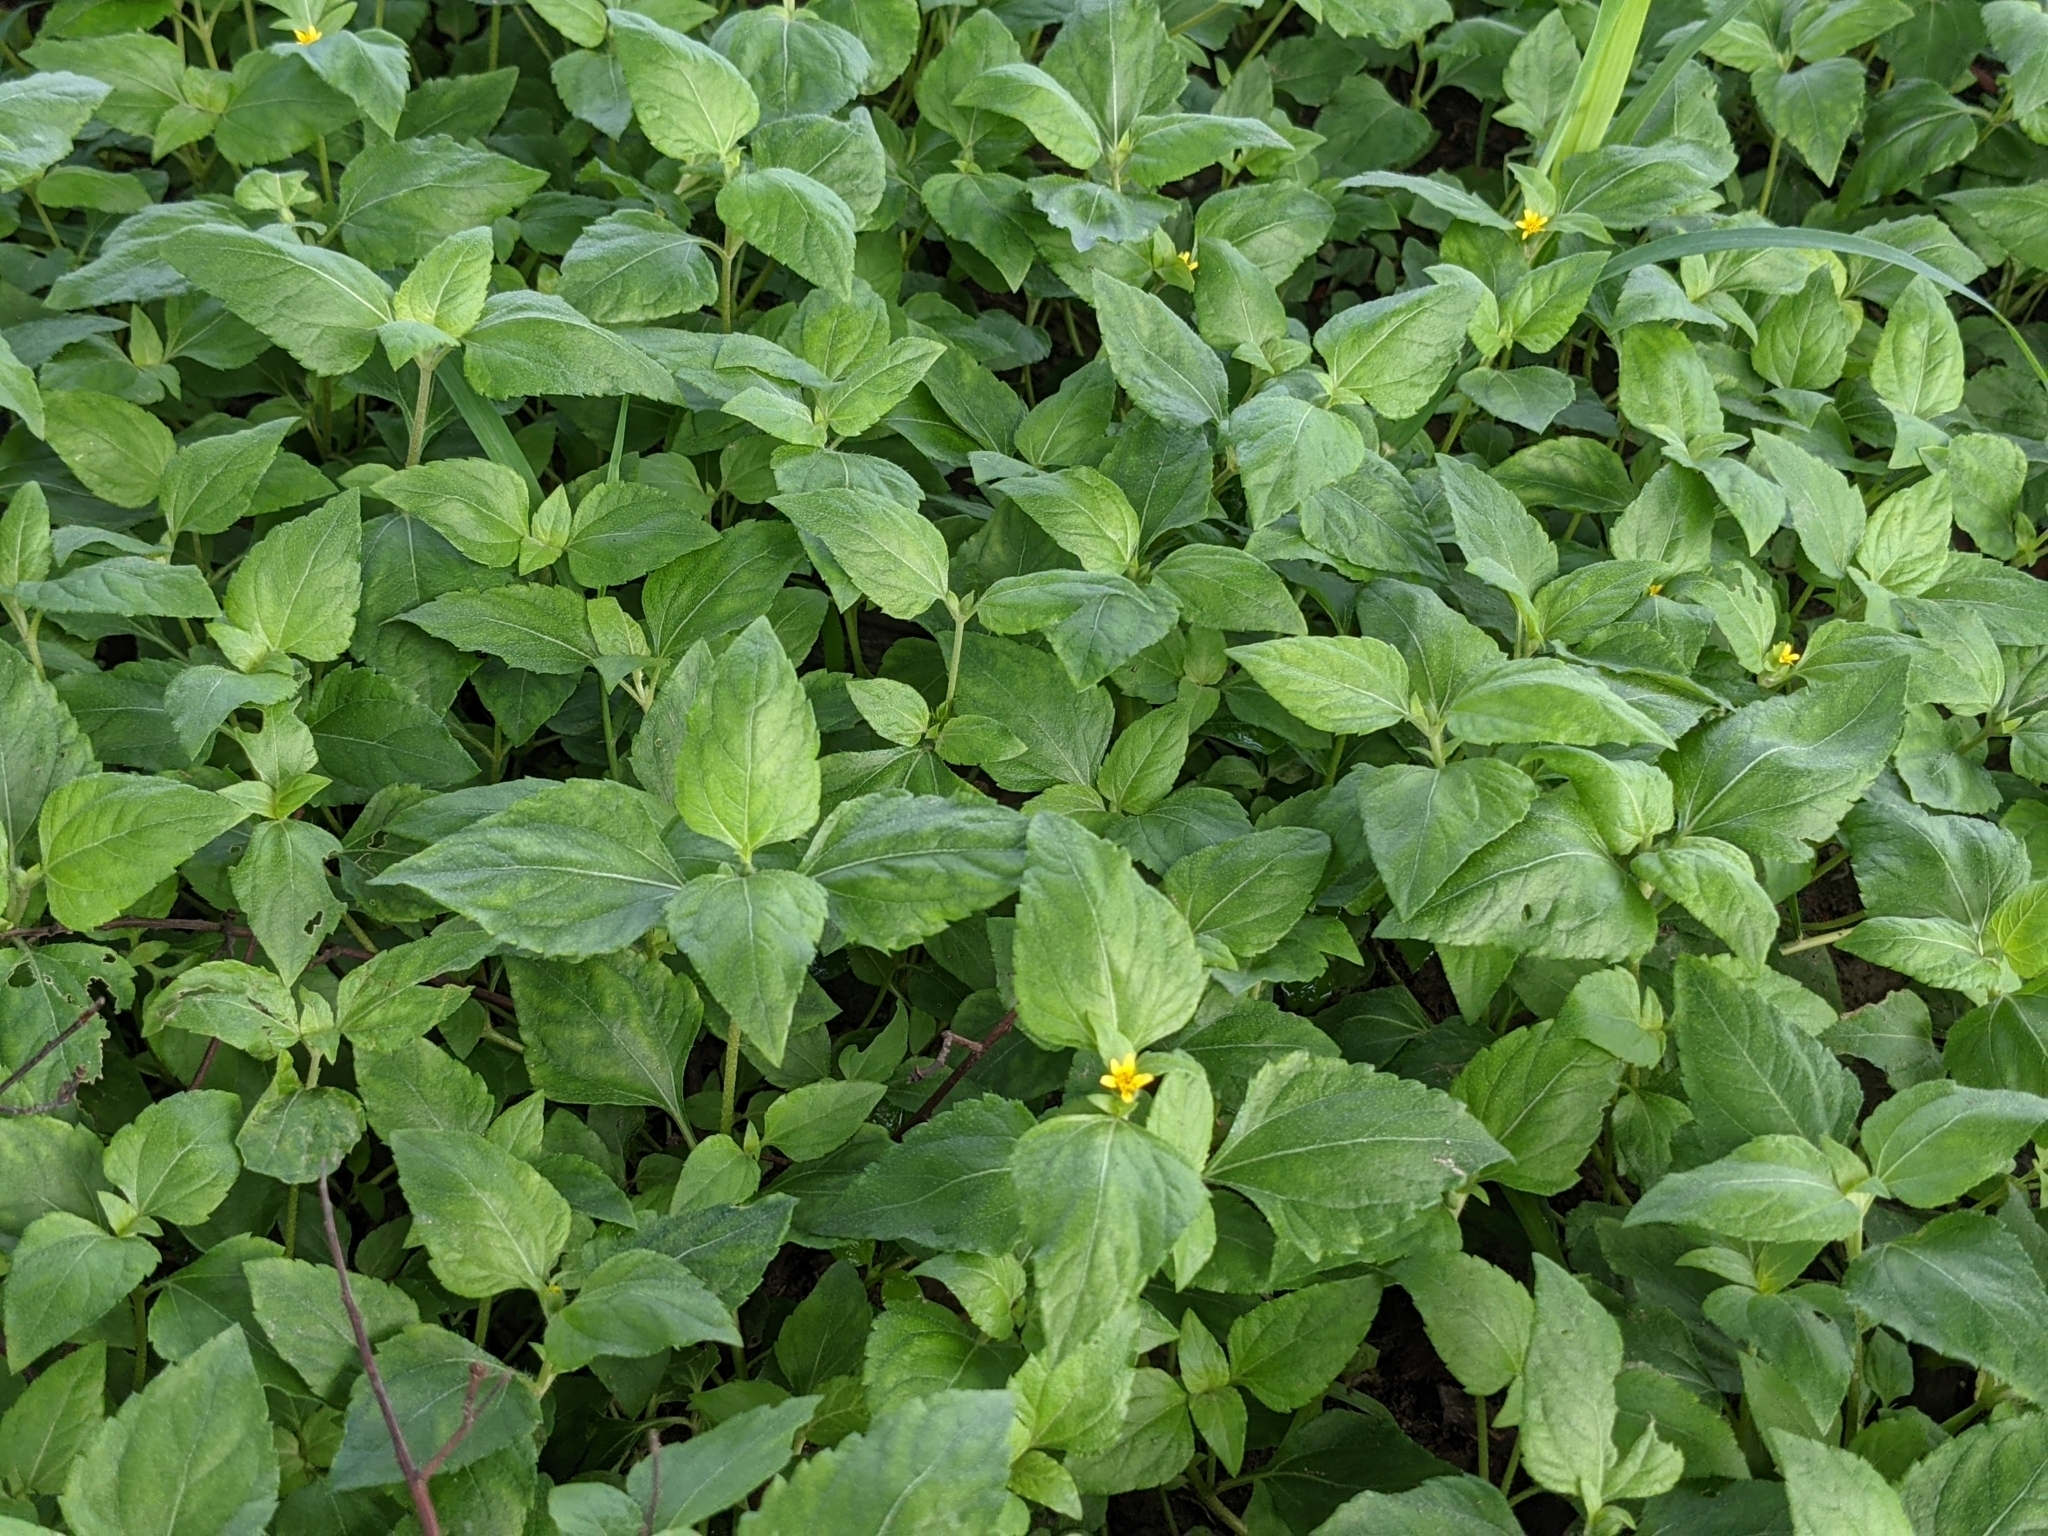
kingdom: Plantae
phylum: Tracheophyta
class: Magnoliopsida
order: Asterales
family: Asteraceae
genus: Calyptocarpus
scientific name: Calyptocarpus vialis
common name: Straggler daisy
